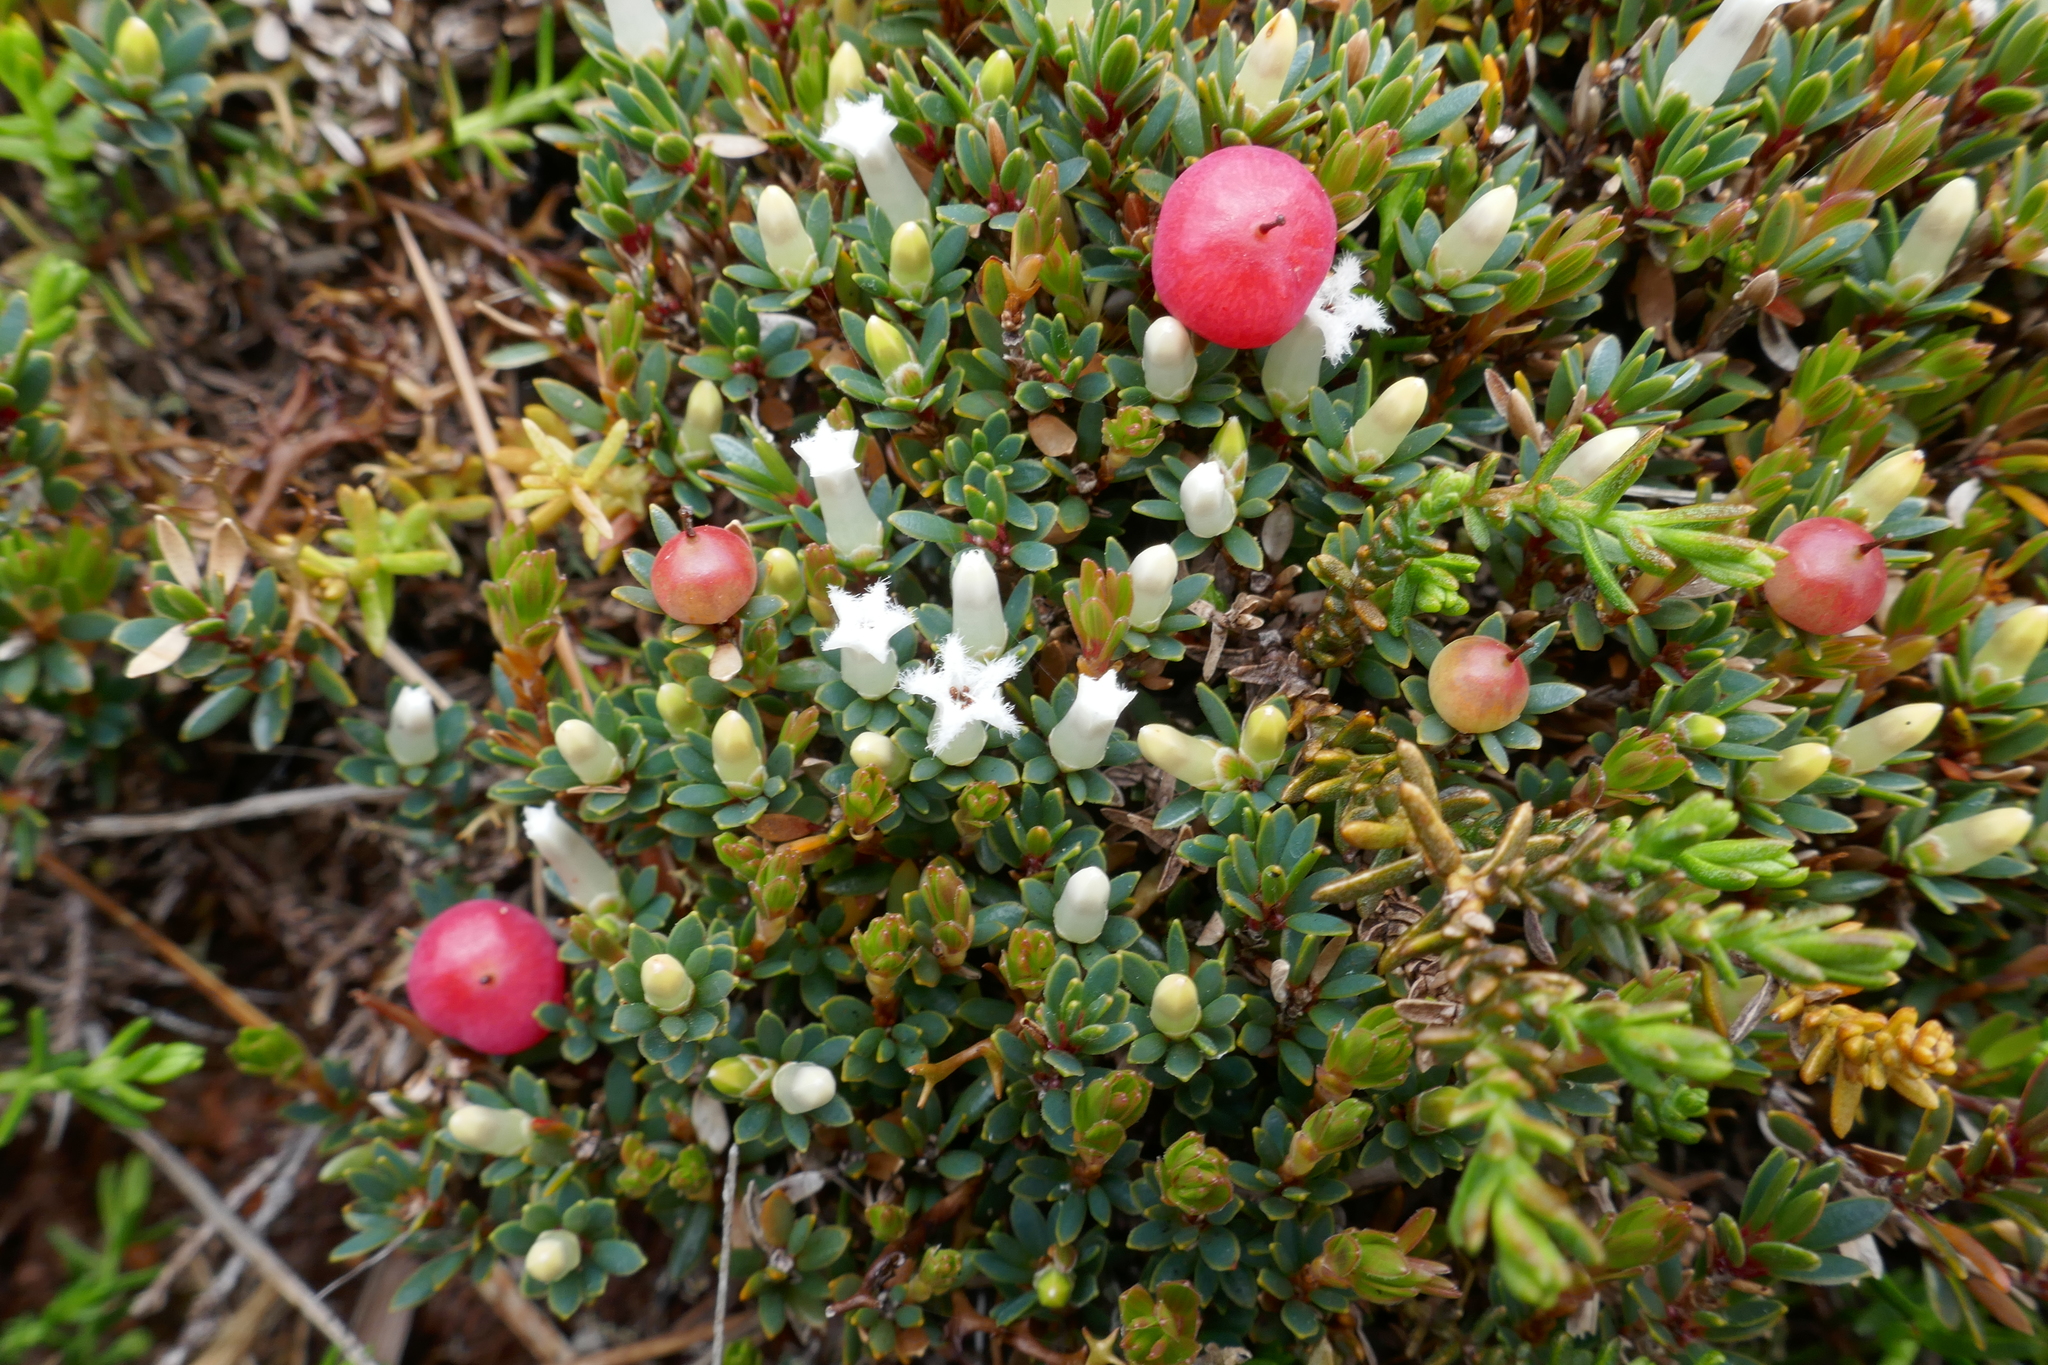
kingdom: Plantae
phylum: Tracheophyta
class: Magnoliopsida
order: Ericales
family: Ericaceae
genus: Pentachondra
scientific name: Pentachondra pumila
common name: Carpet-heath
